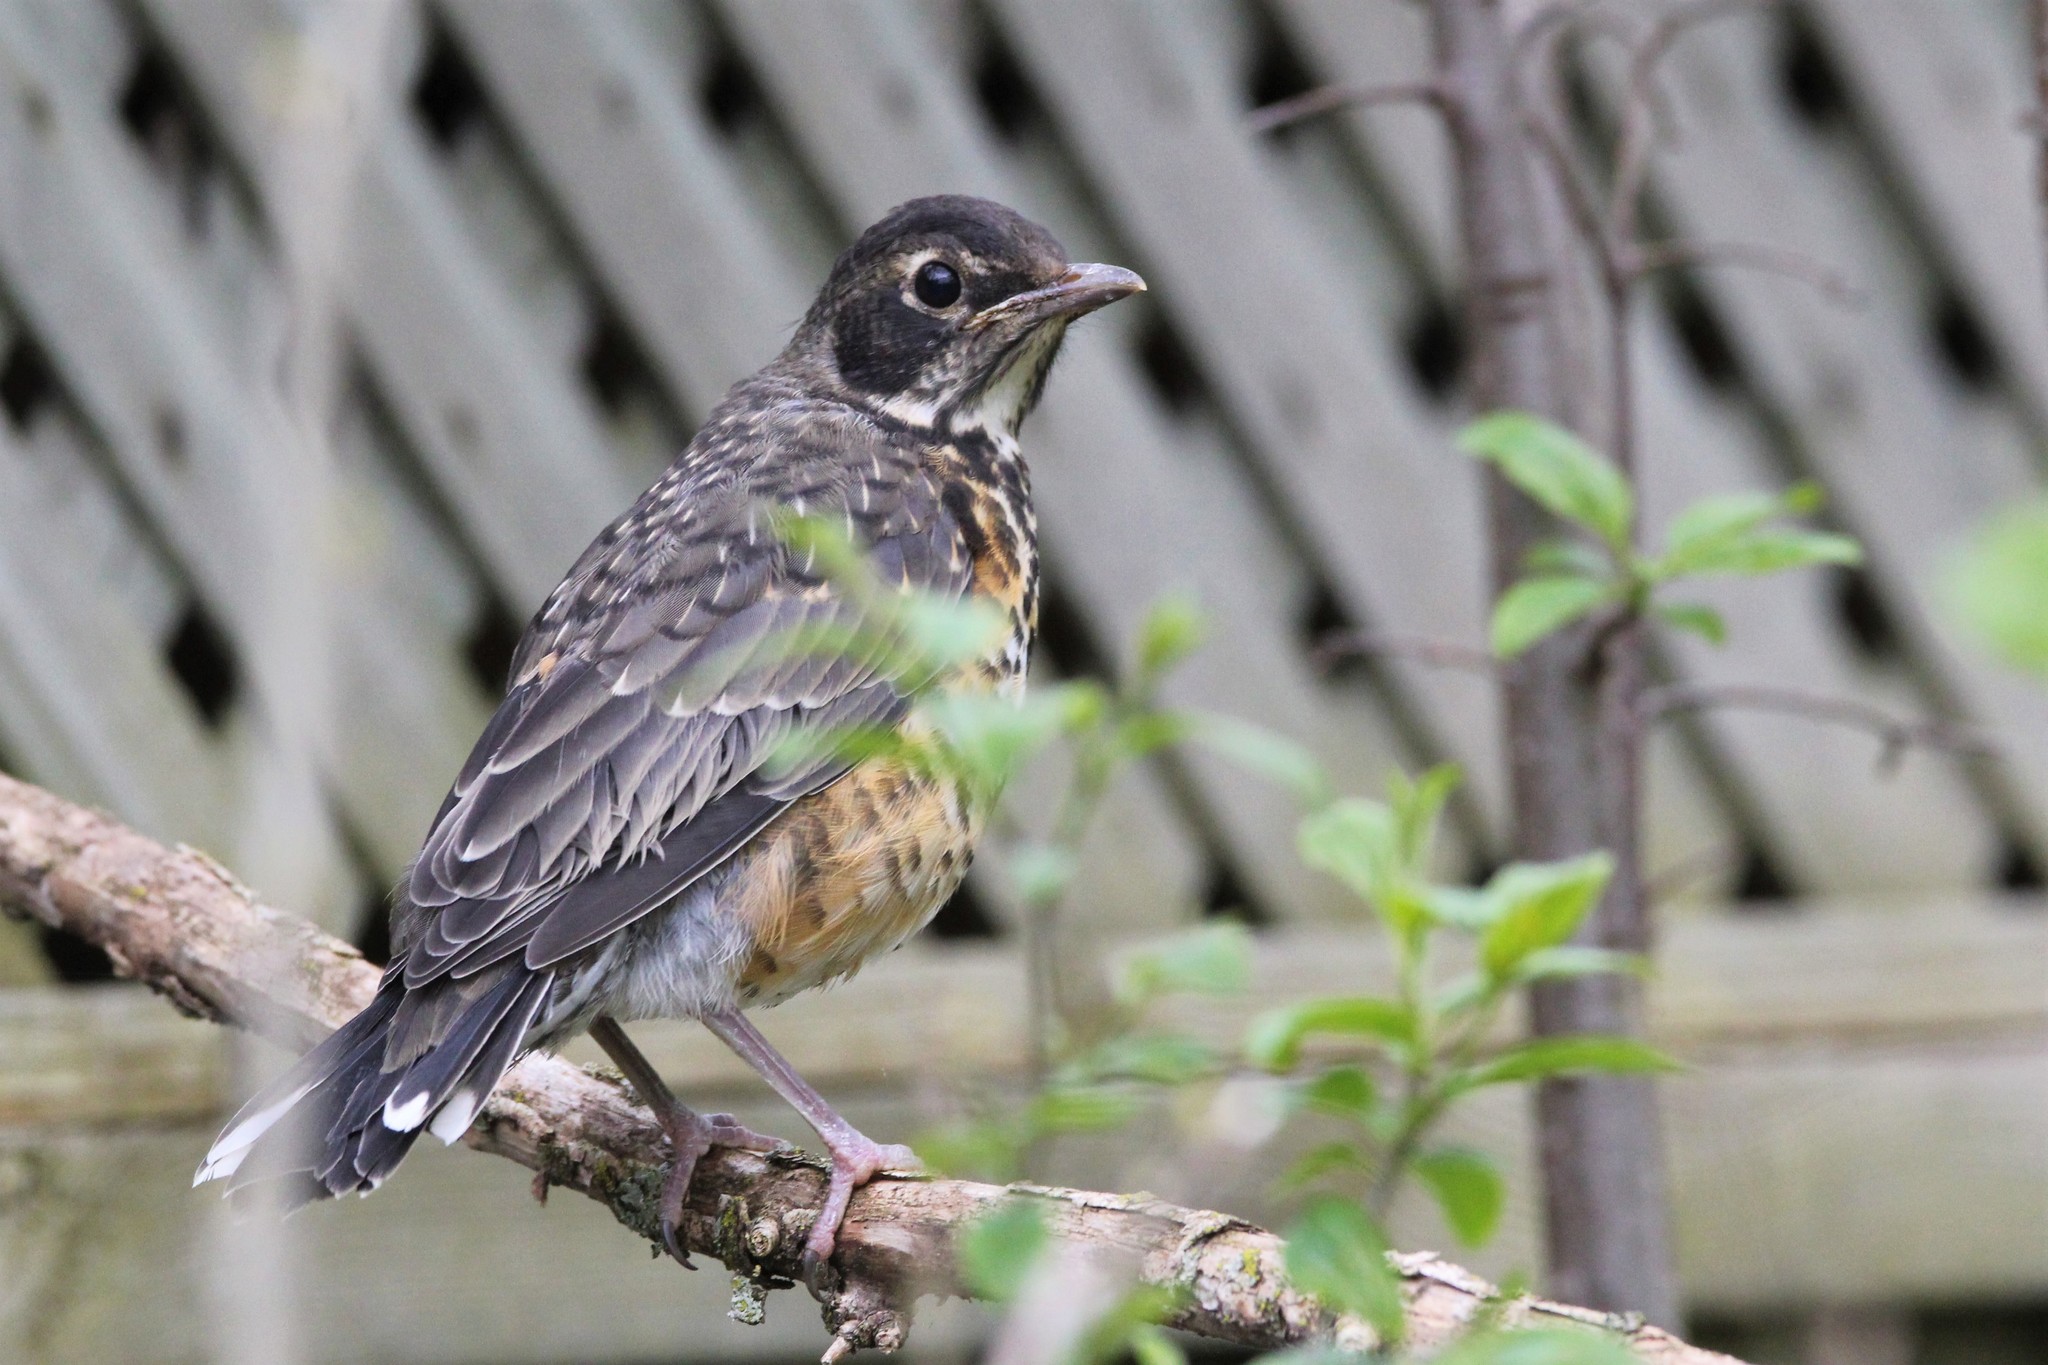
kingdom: Animalia
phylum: Chordata
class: Aves
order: Passeriformes
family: Turdidae
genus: Turdus
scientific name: Turdus migratorius
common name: American robin
